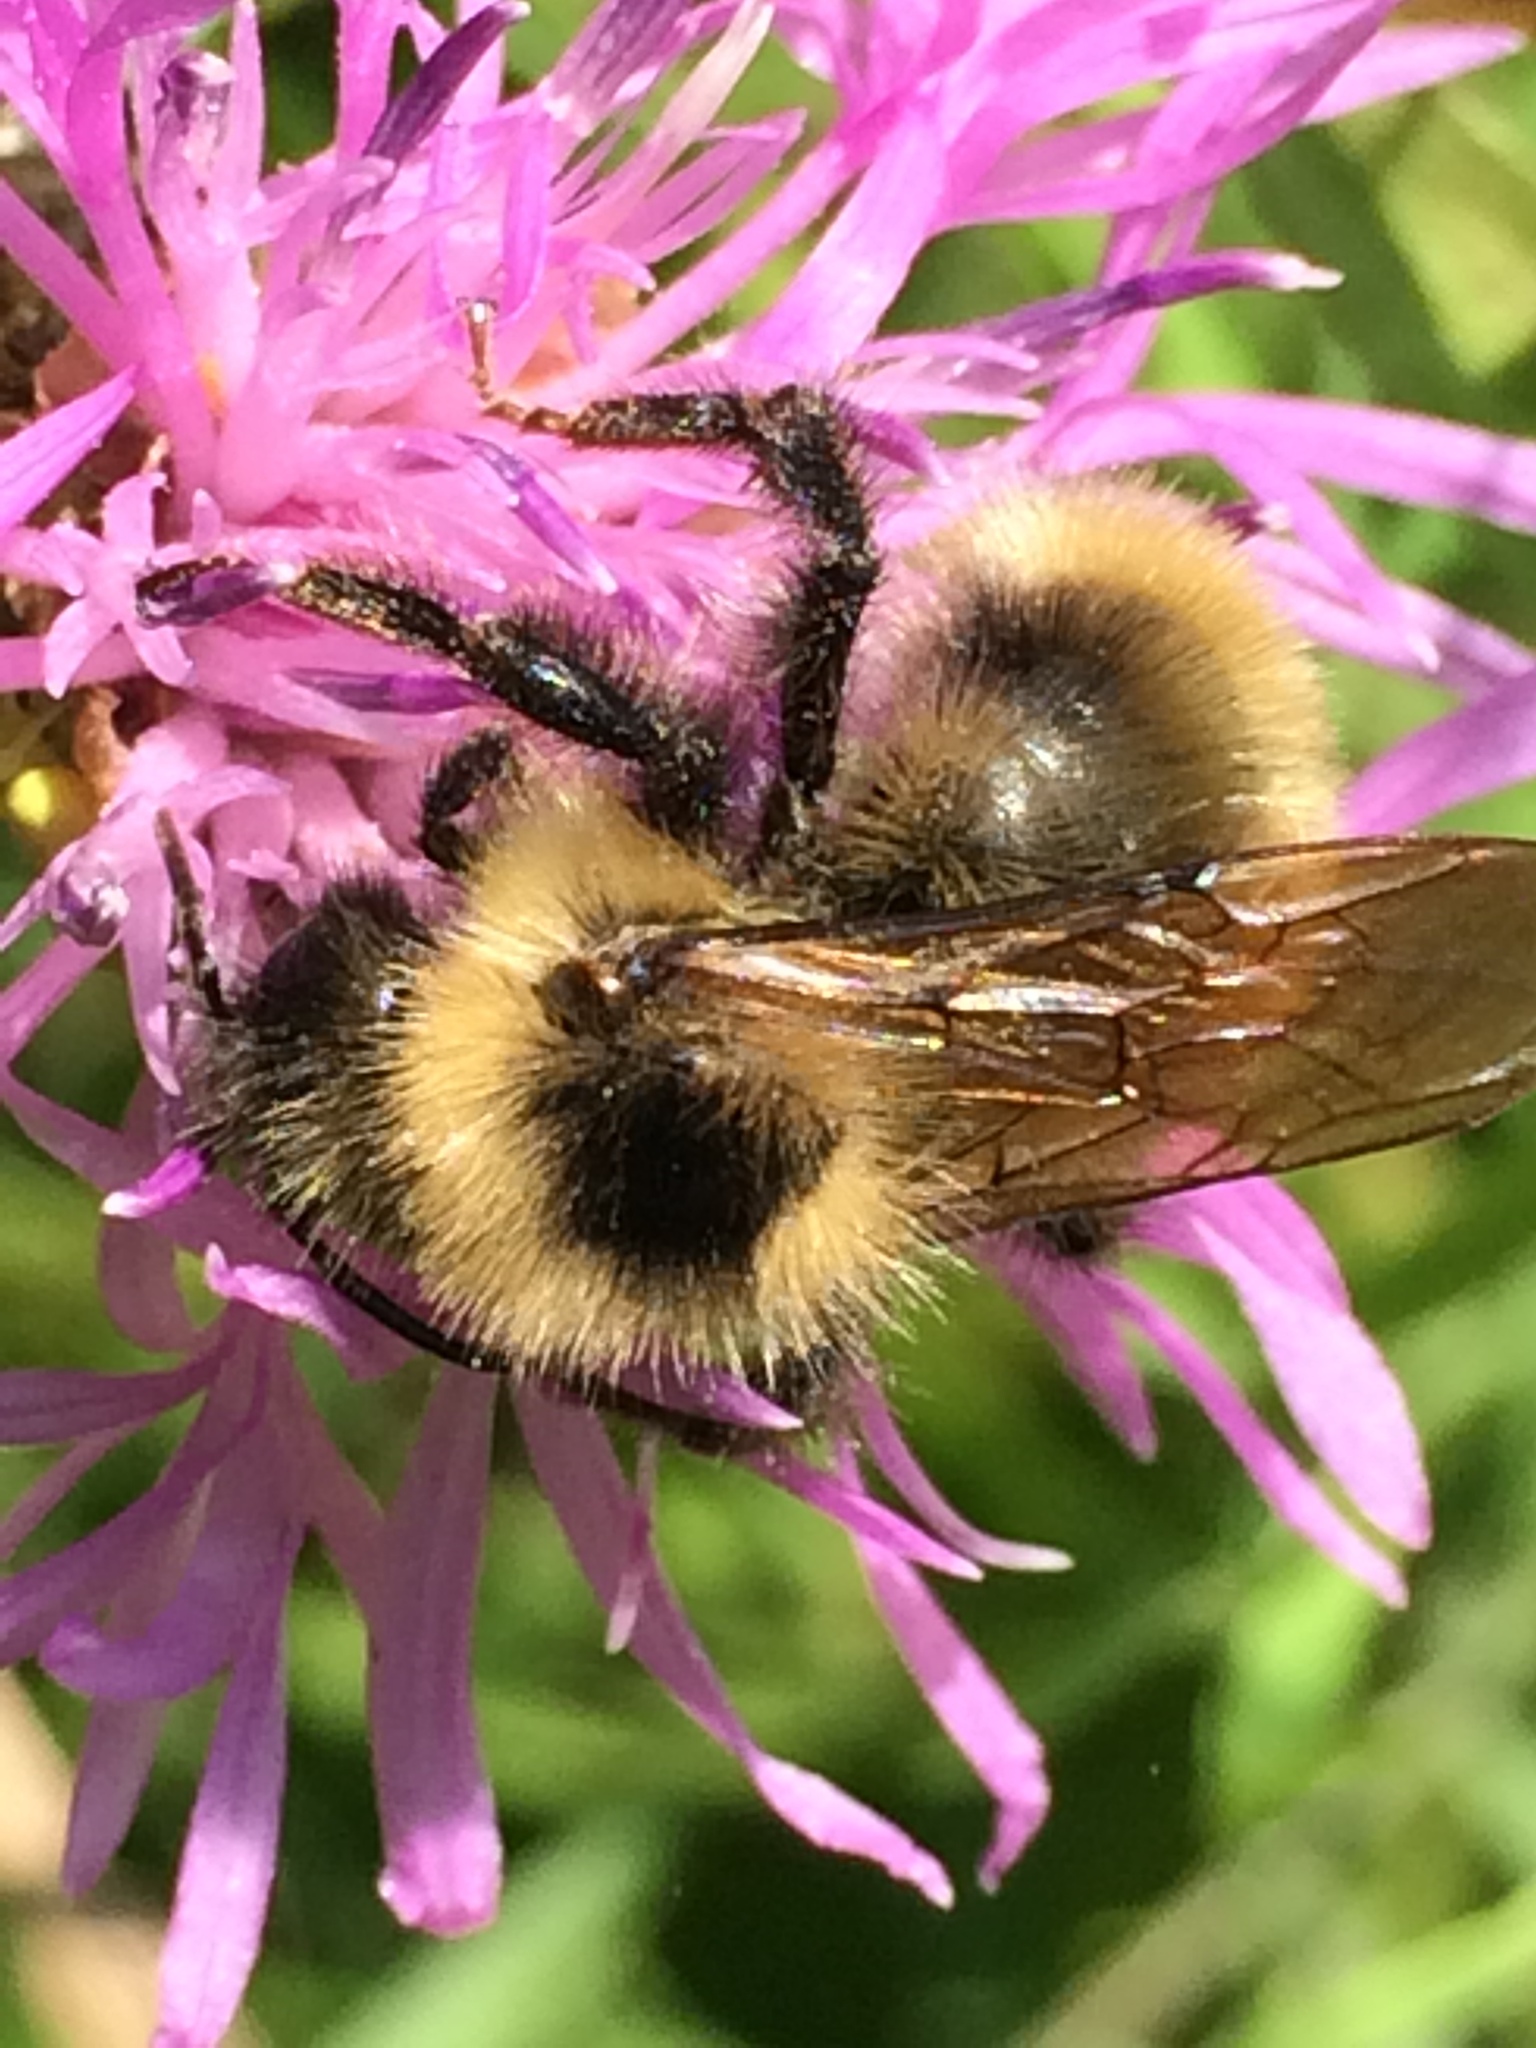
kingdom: Animalia
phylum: Arthropoda
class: Insecta
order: Hymenoptera
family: Apidae
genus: Bombus
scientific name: Bombus flavidus
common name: Fernald cuckoo bumble bee
